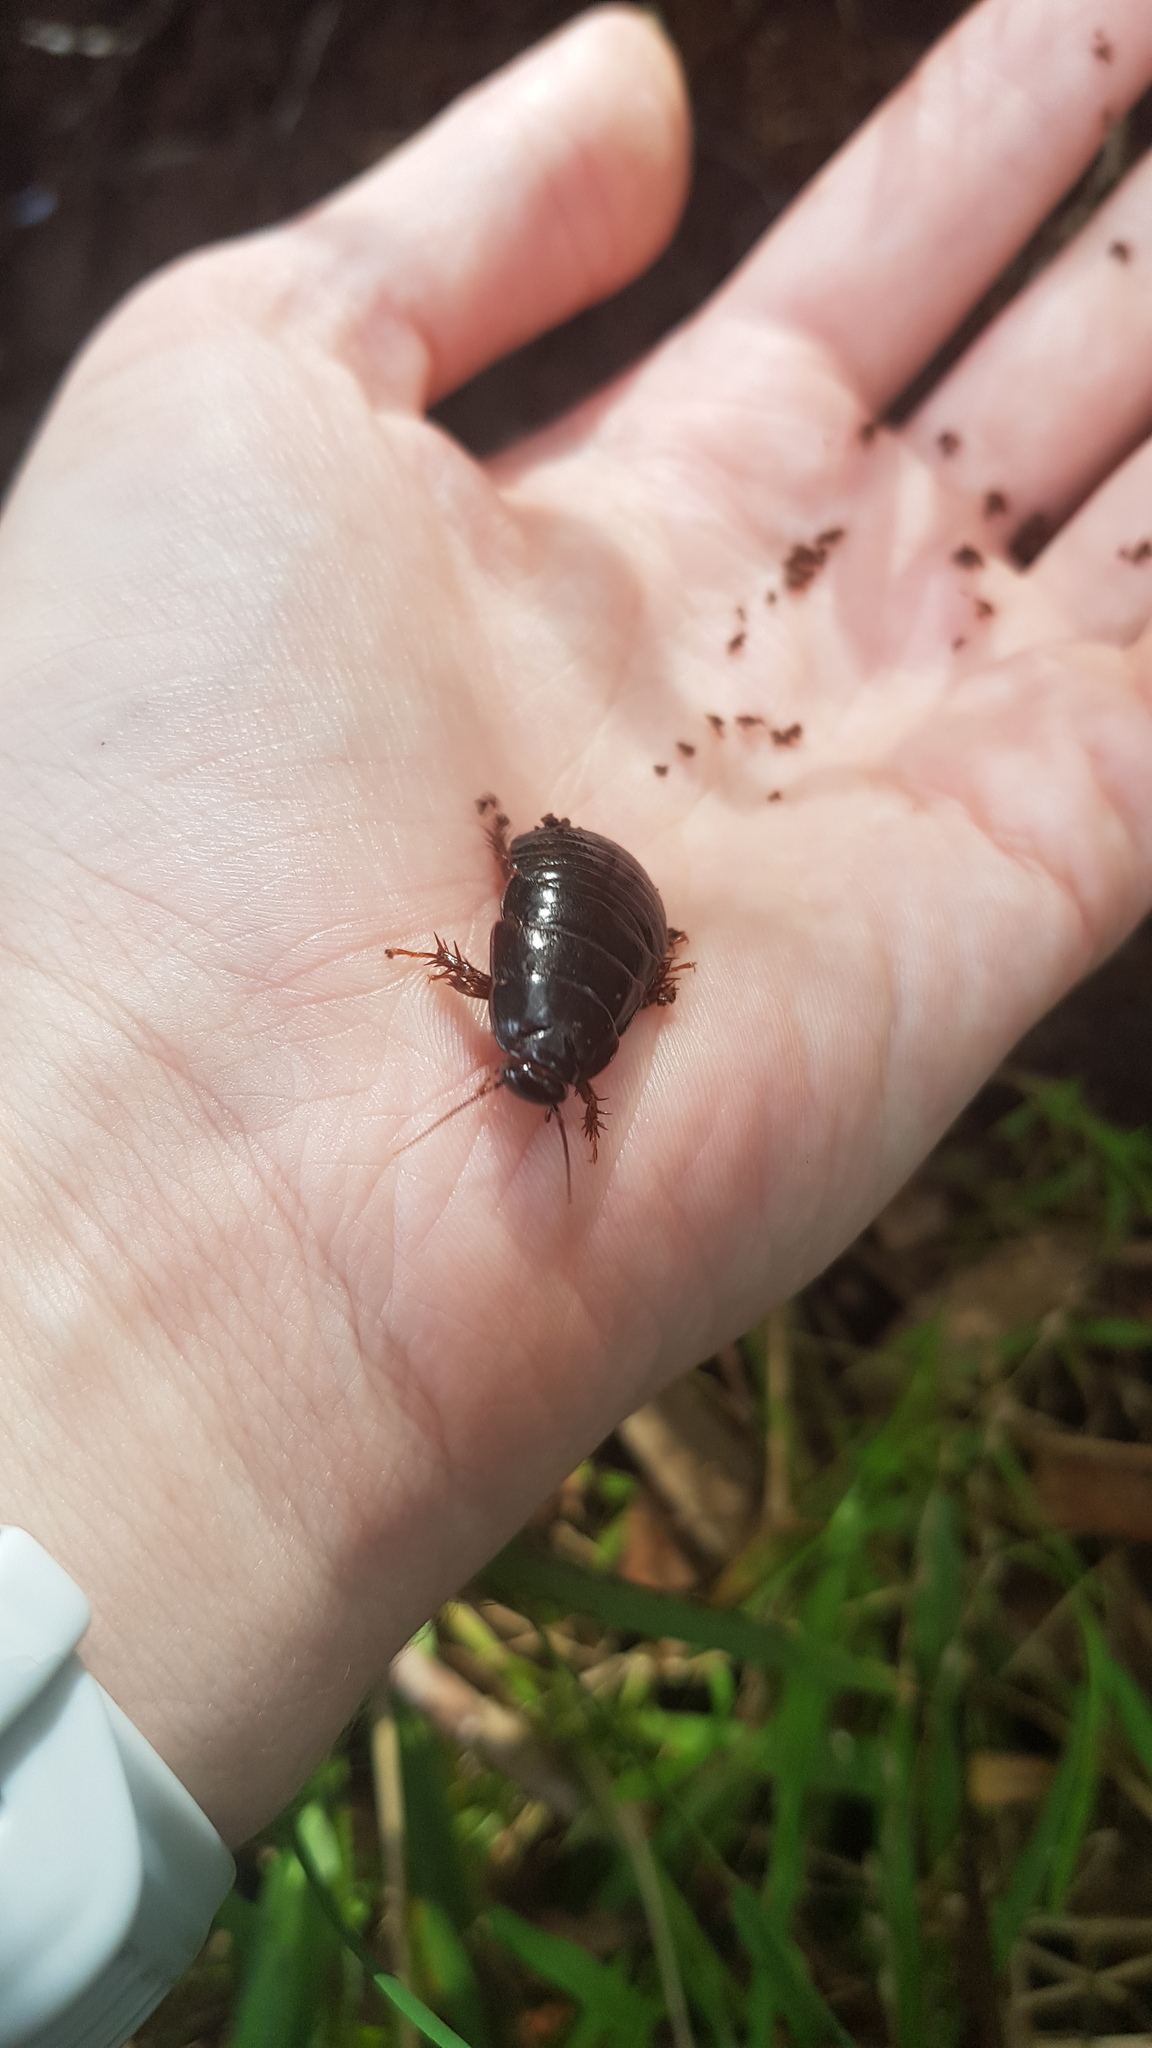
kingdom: Animalia
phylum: Arthropoda
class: Insecta
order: Blattodea
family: Blaberidae
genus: Panesthia
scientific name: Panesthia australis
